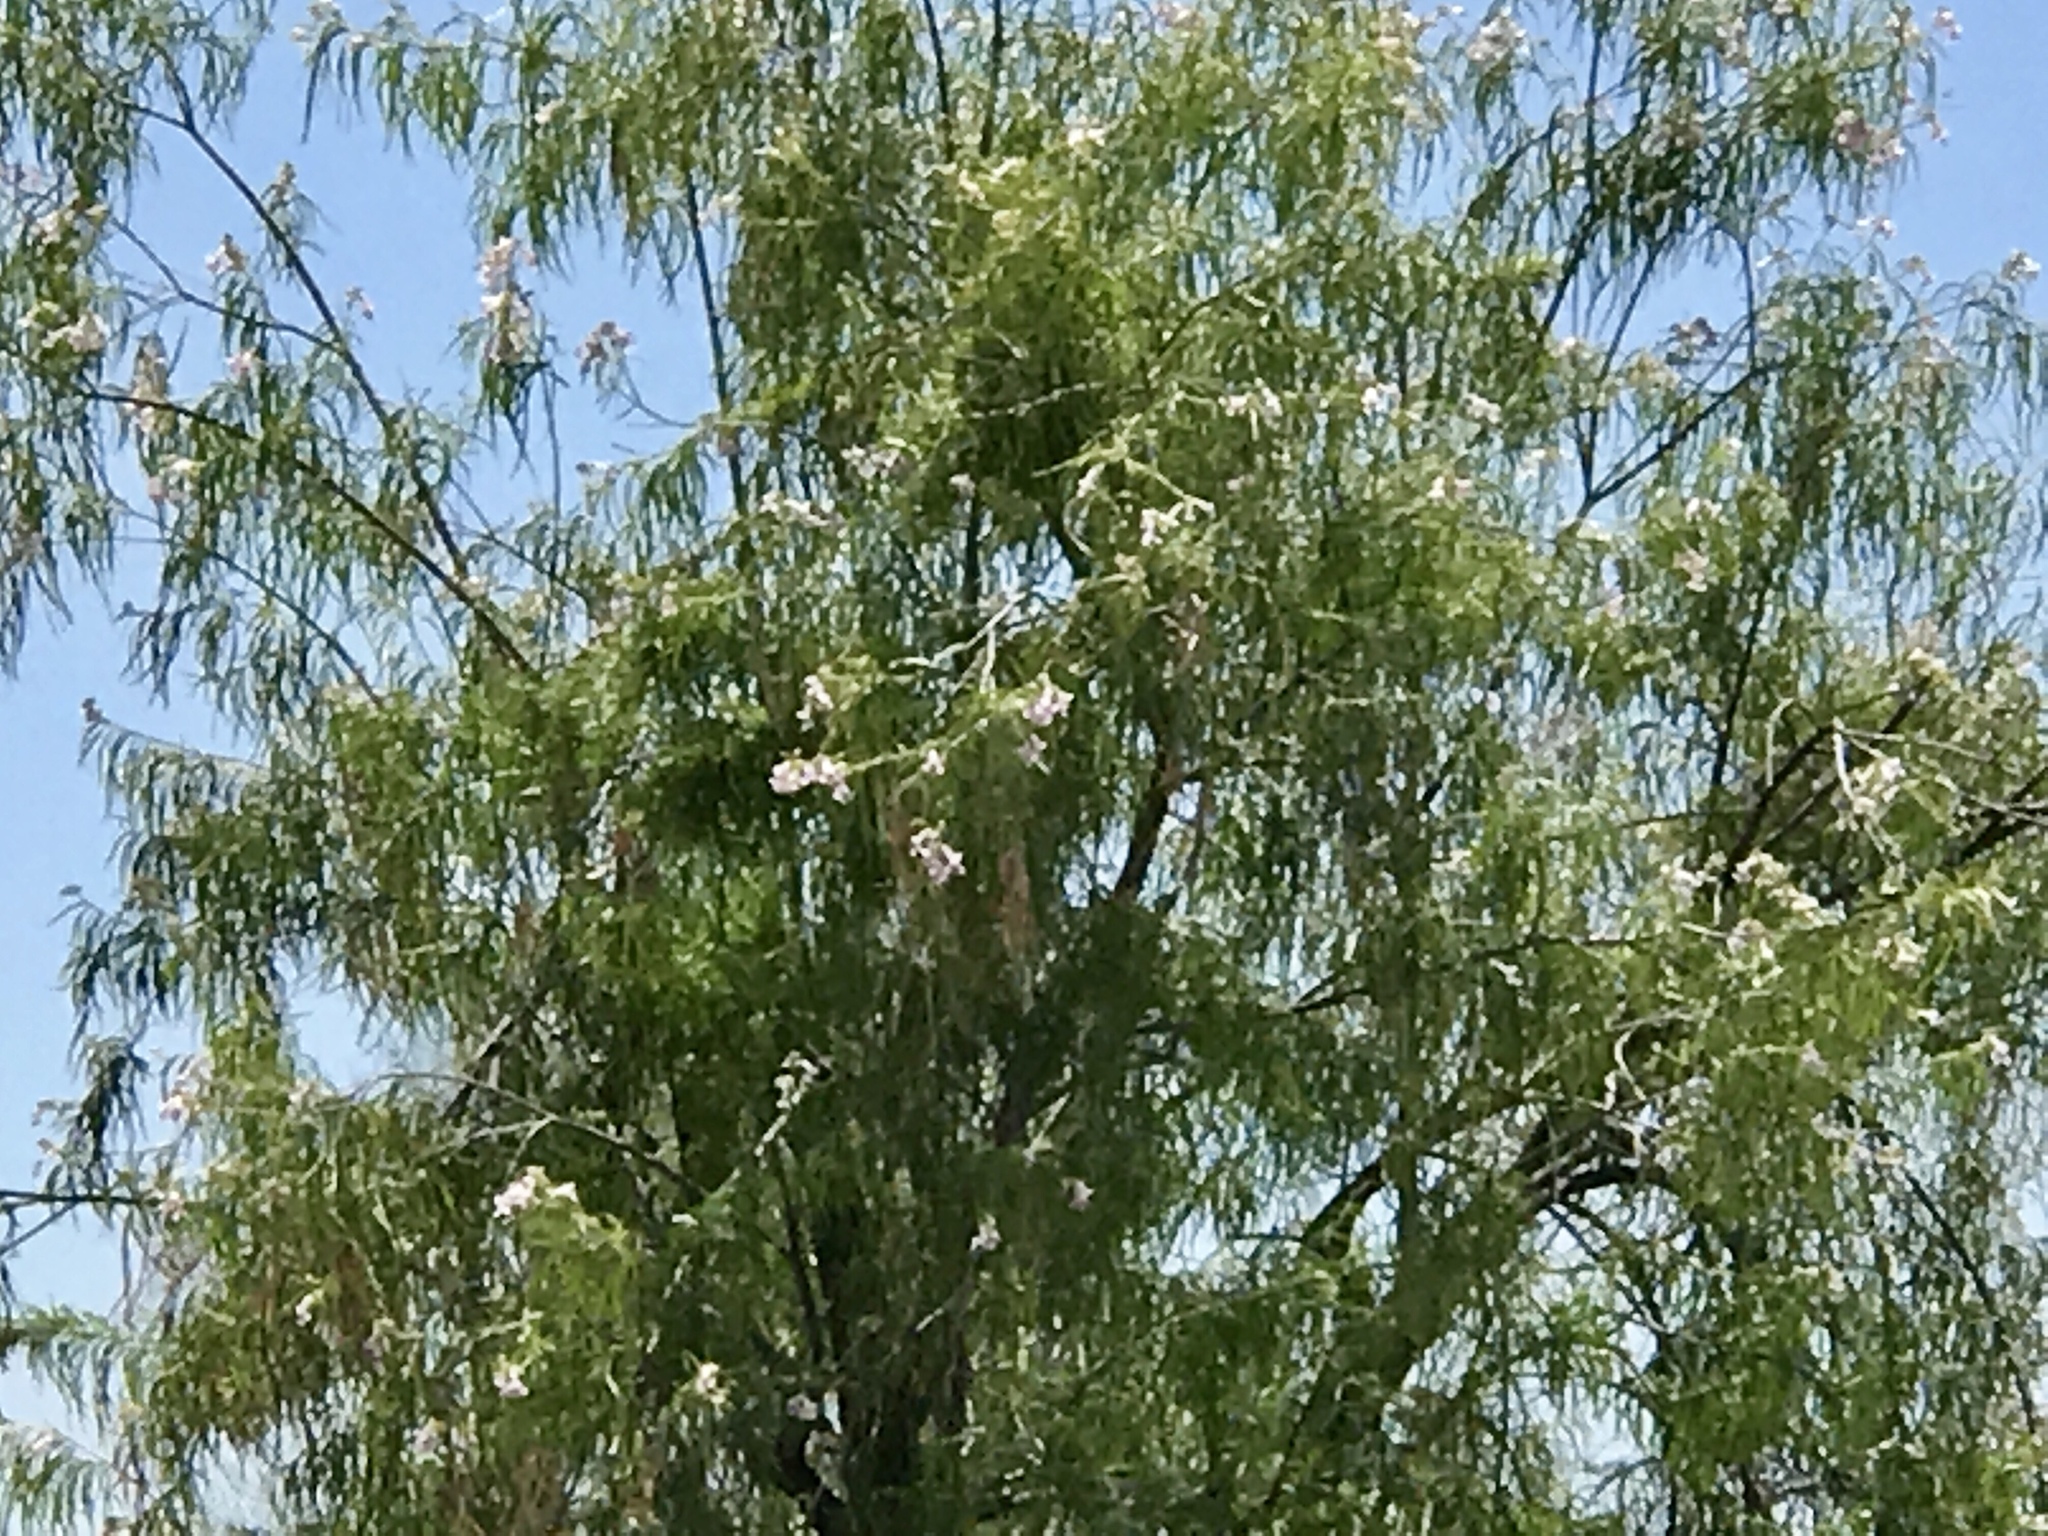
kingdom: Plantae
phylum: Tracheophyta
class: Magnoliopsida
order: Lamiales
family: Bignoniaceae
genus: Chilopsis
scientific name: Chilopsis linearis
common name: Desert-willow
